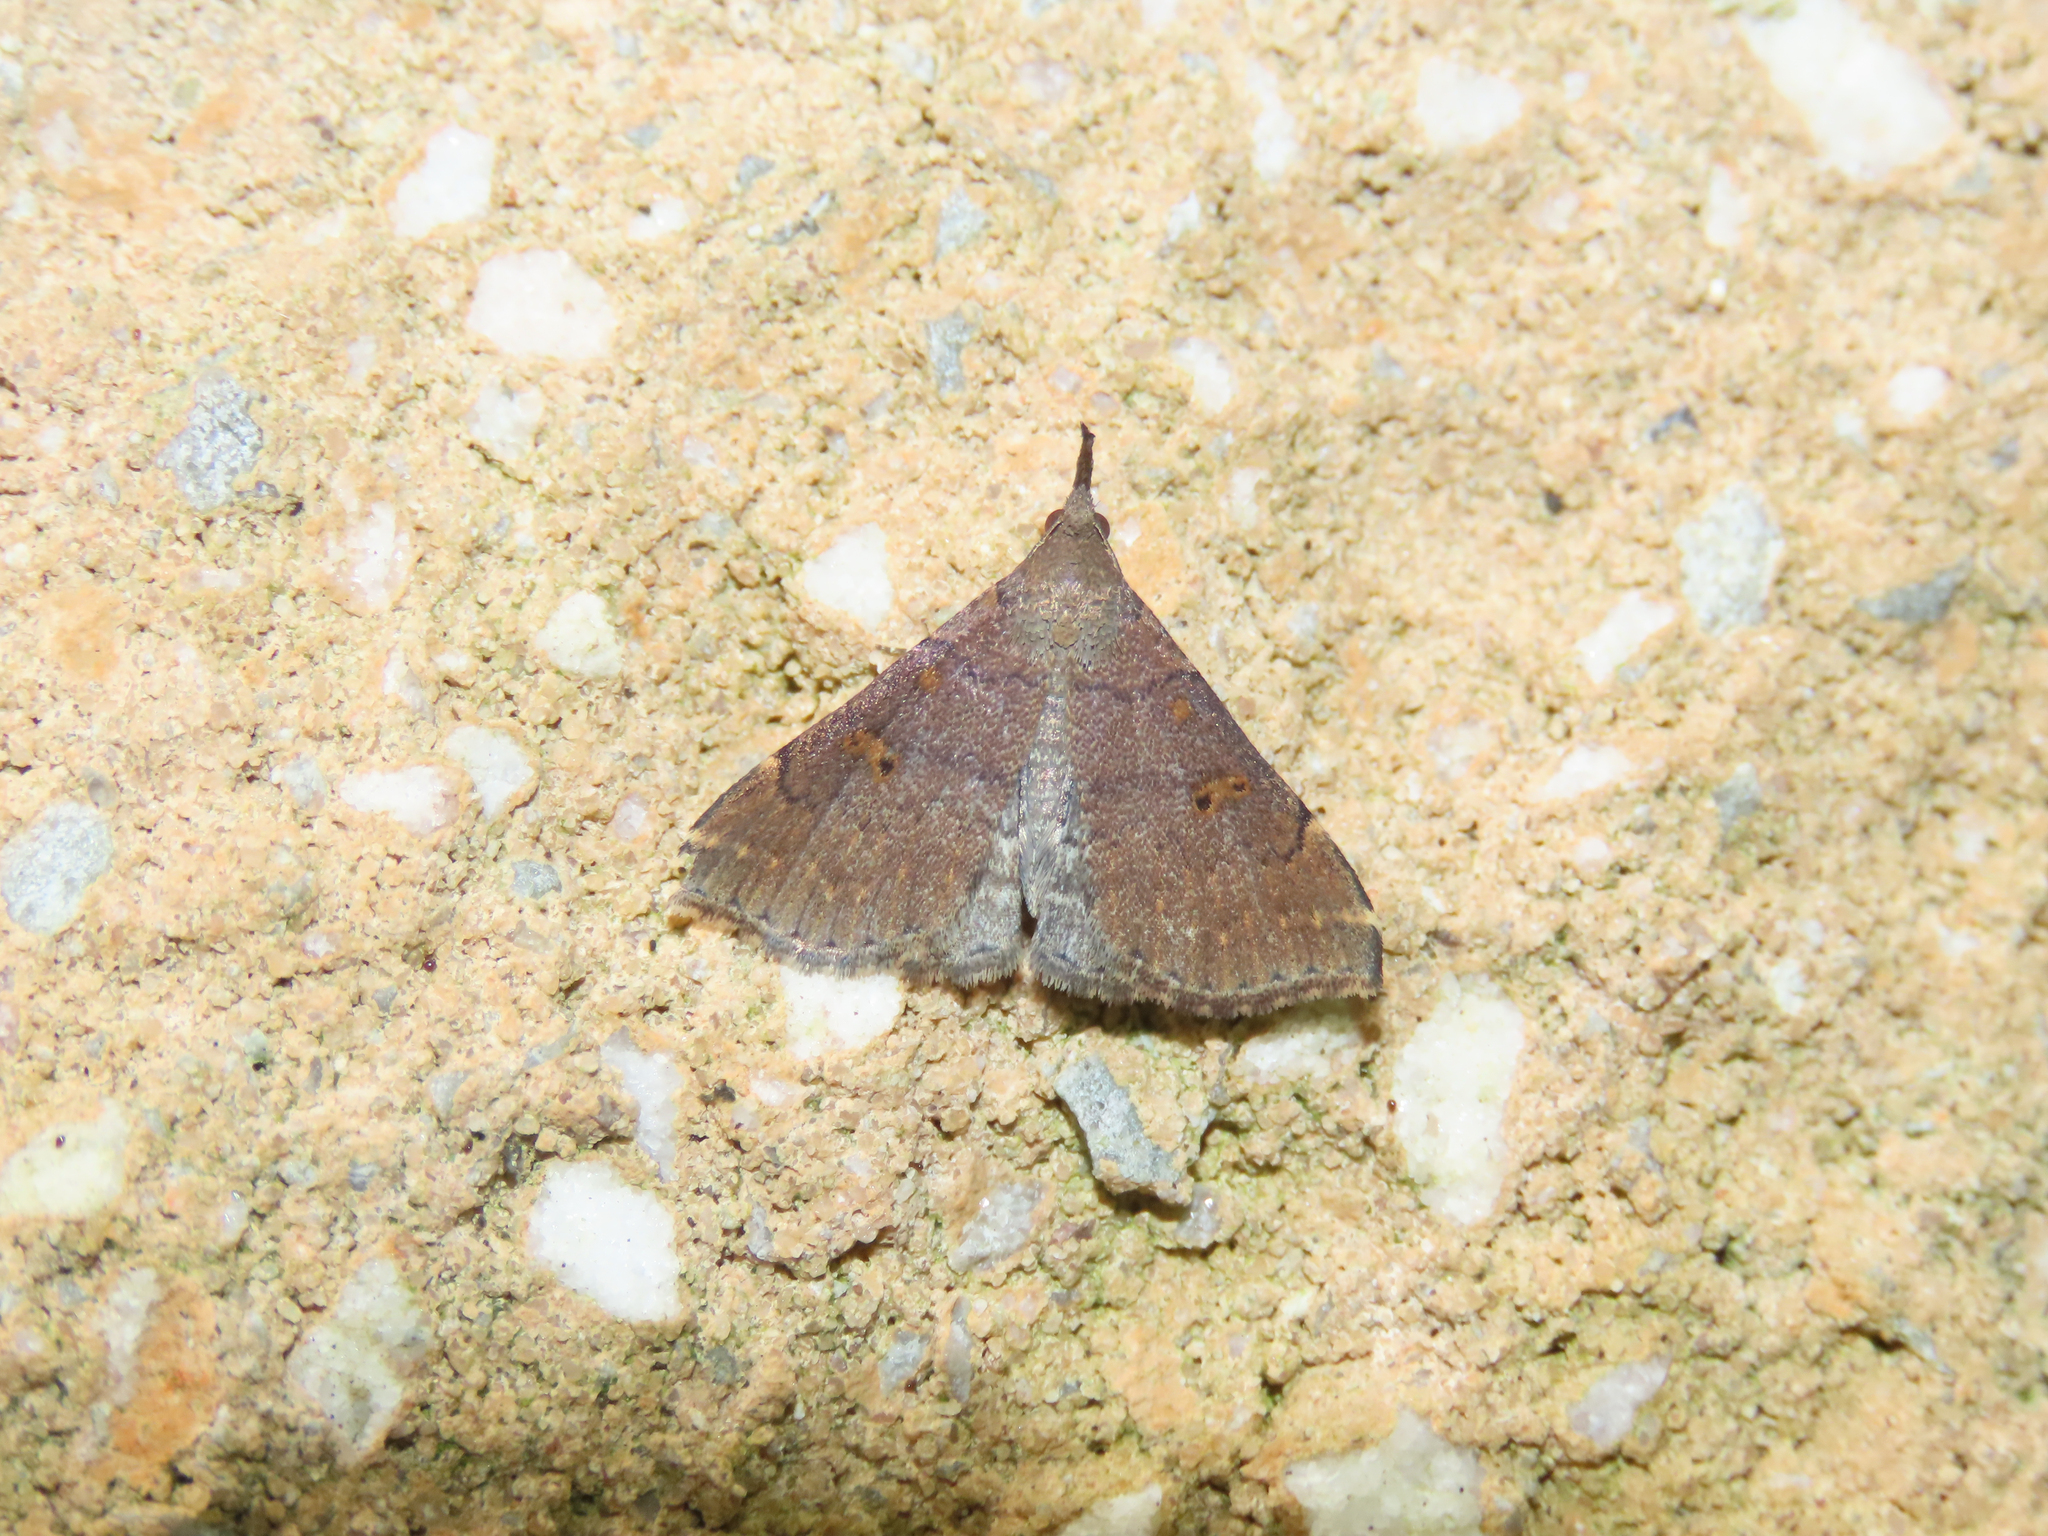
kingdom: Animalia
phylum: Arthropoda
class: Insecta
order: Lepidoptera
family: Erebidae
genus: Renia
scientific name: Renia factiosalis
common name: Sociable renia moth
